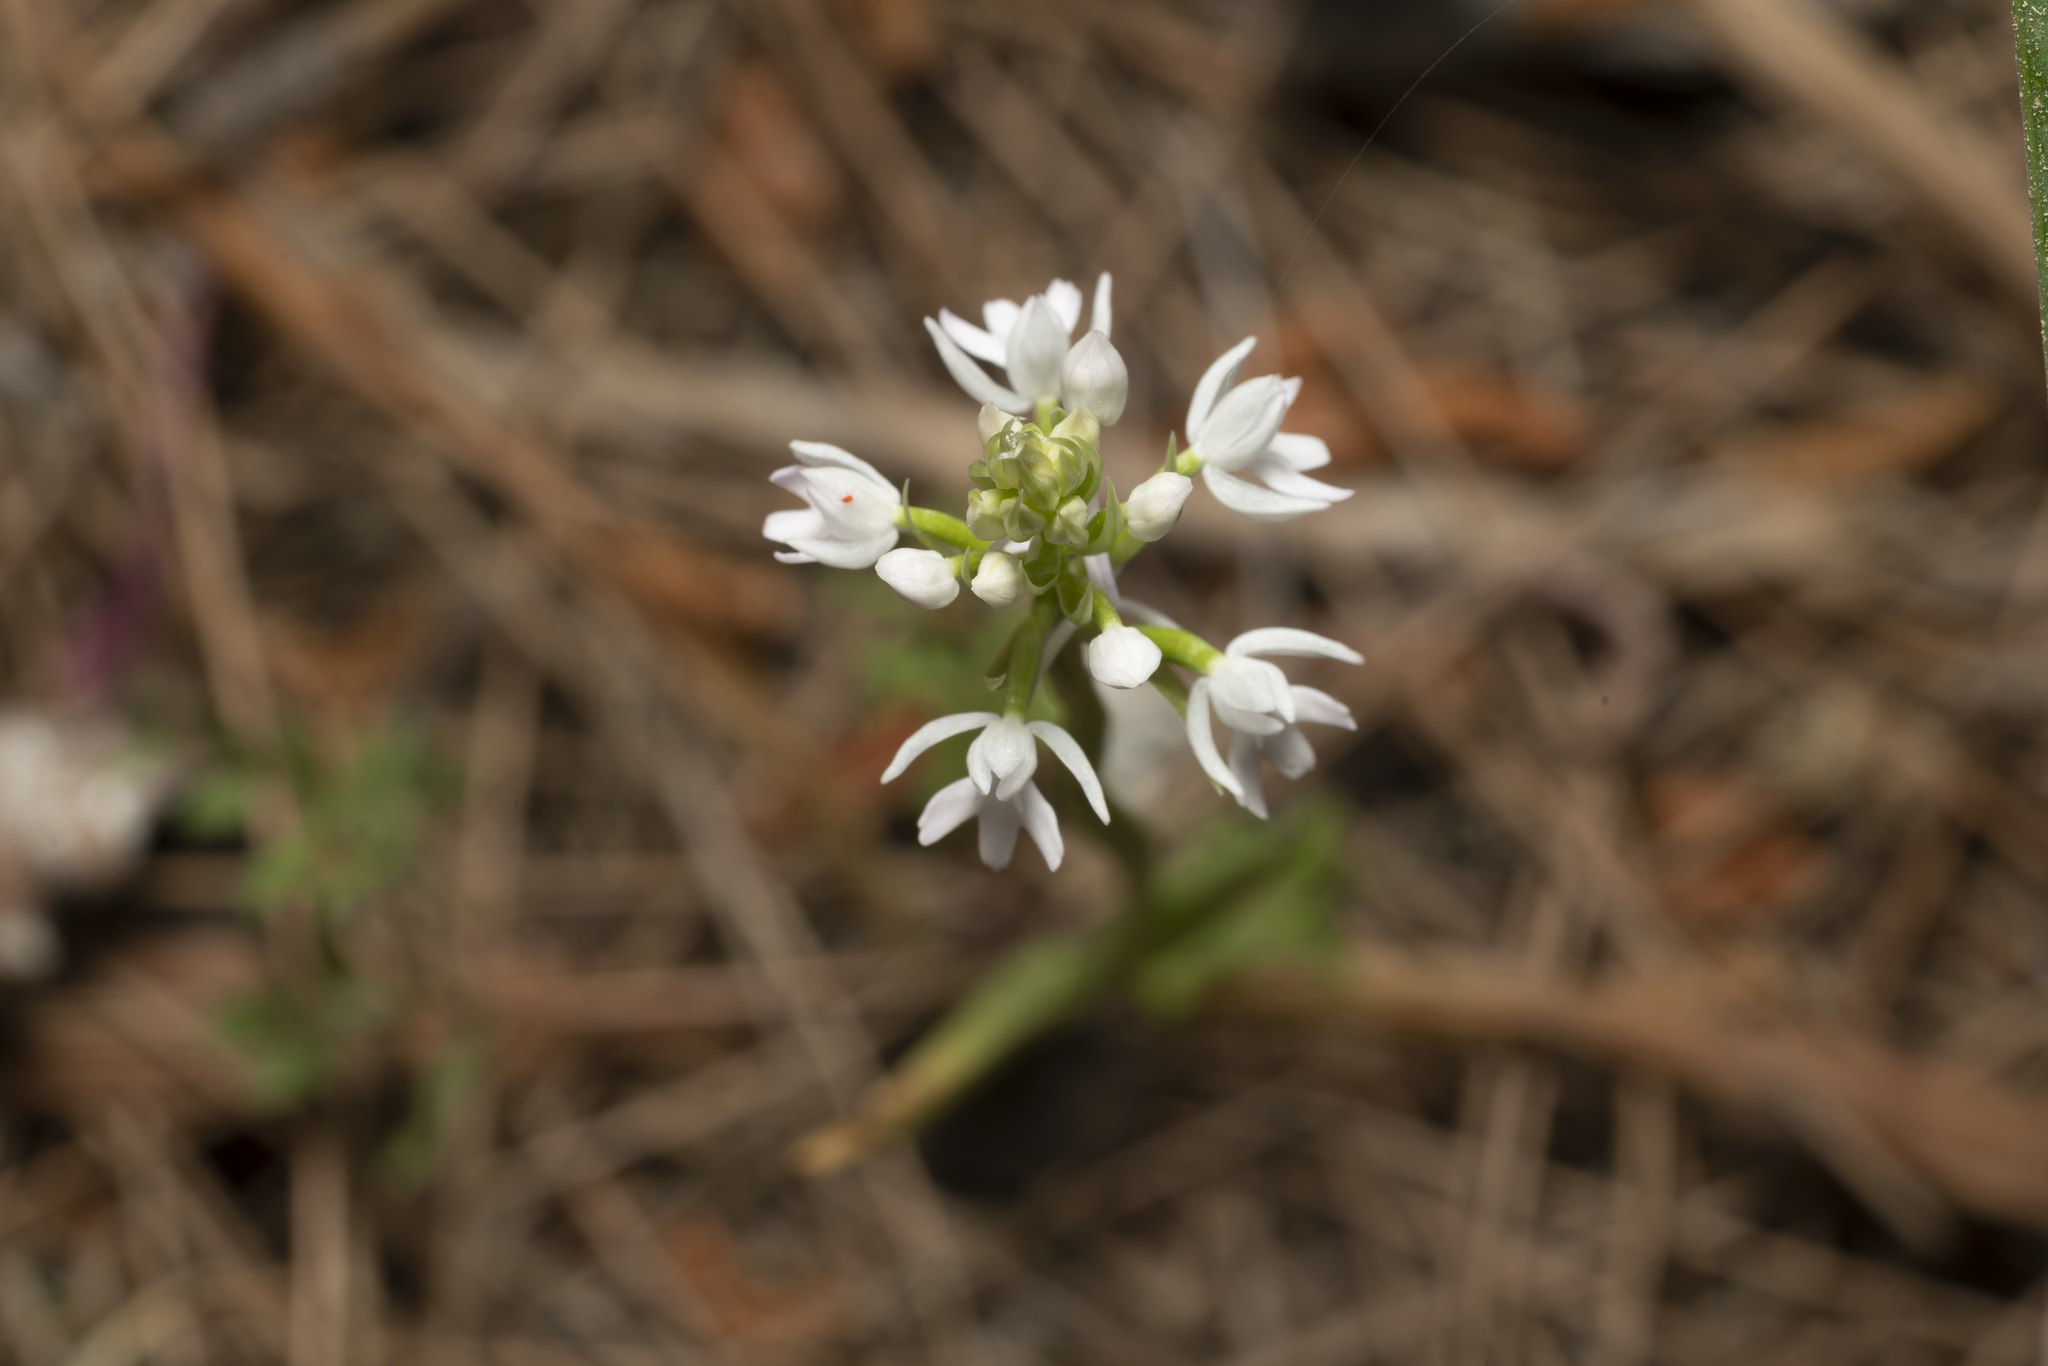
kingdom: Plantae
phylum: Tracheophyta
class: Liliopsida
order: Asparagales
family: Orchidaceae
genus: Anacamptis
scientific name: Anacamptis pyramidalis
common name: Pyramidal orchid
